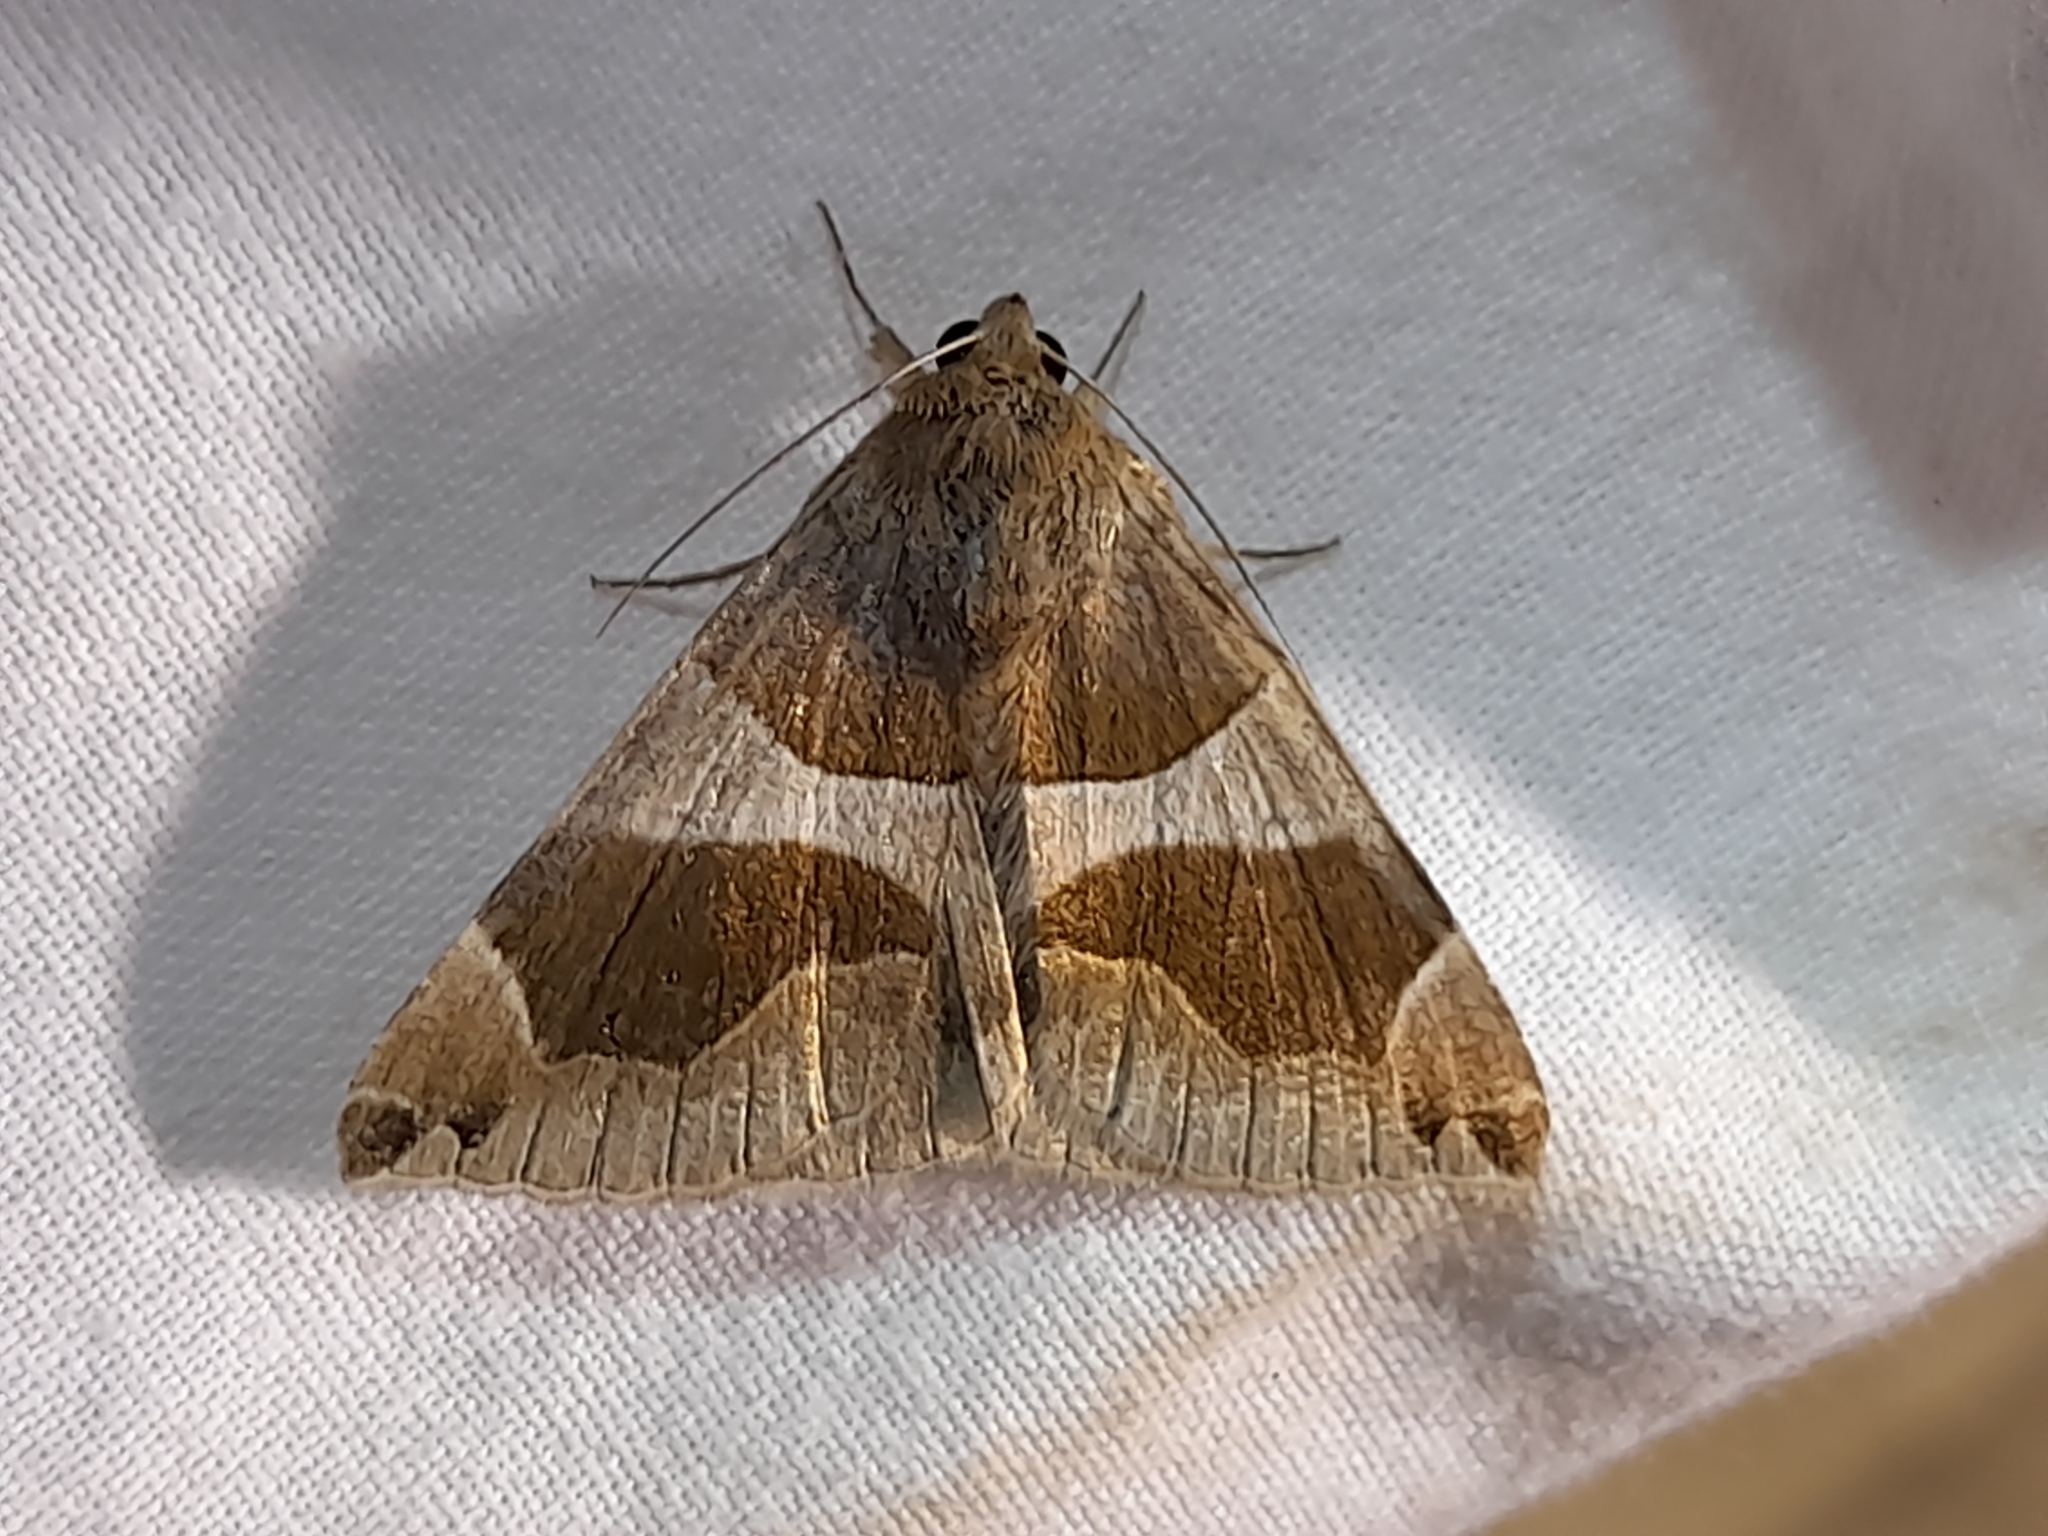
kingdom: Animalia
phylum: Arthropoda
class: Insecta
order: Lepidoptera
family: Erebidae
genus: Dysgonia
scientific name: Dysgonia algira
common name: Passenger
